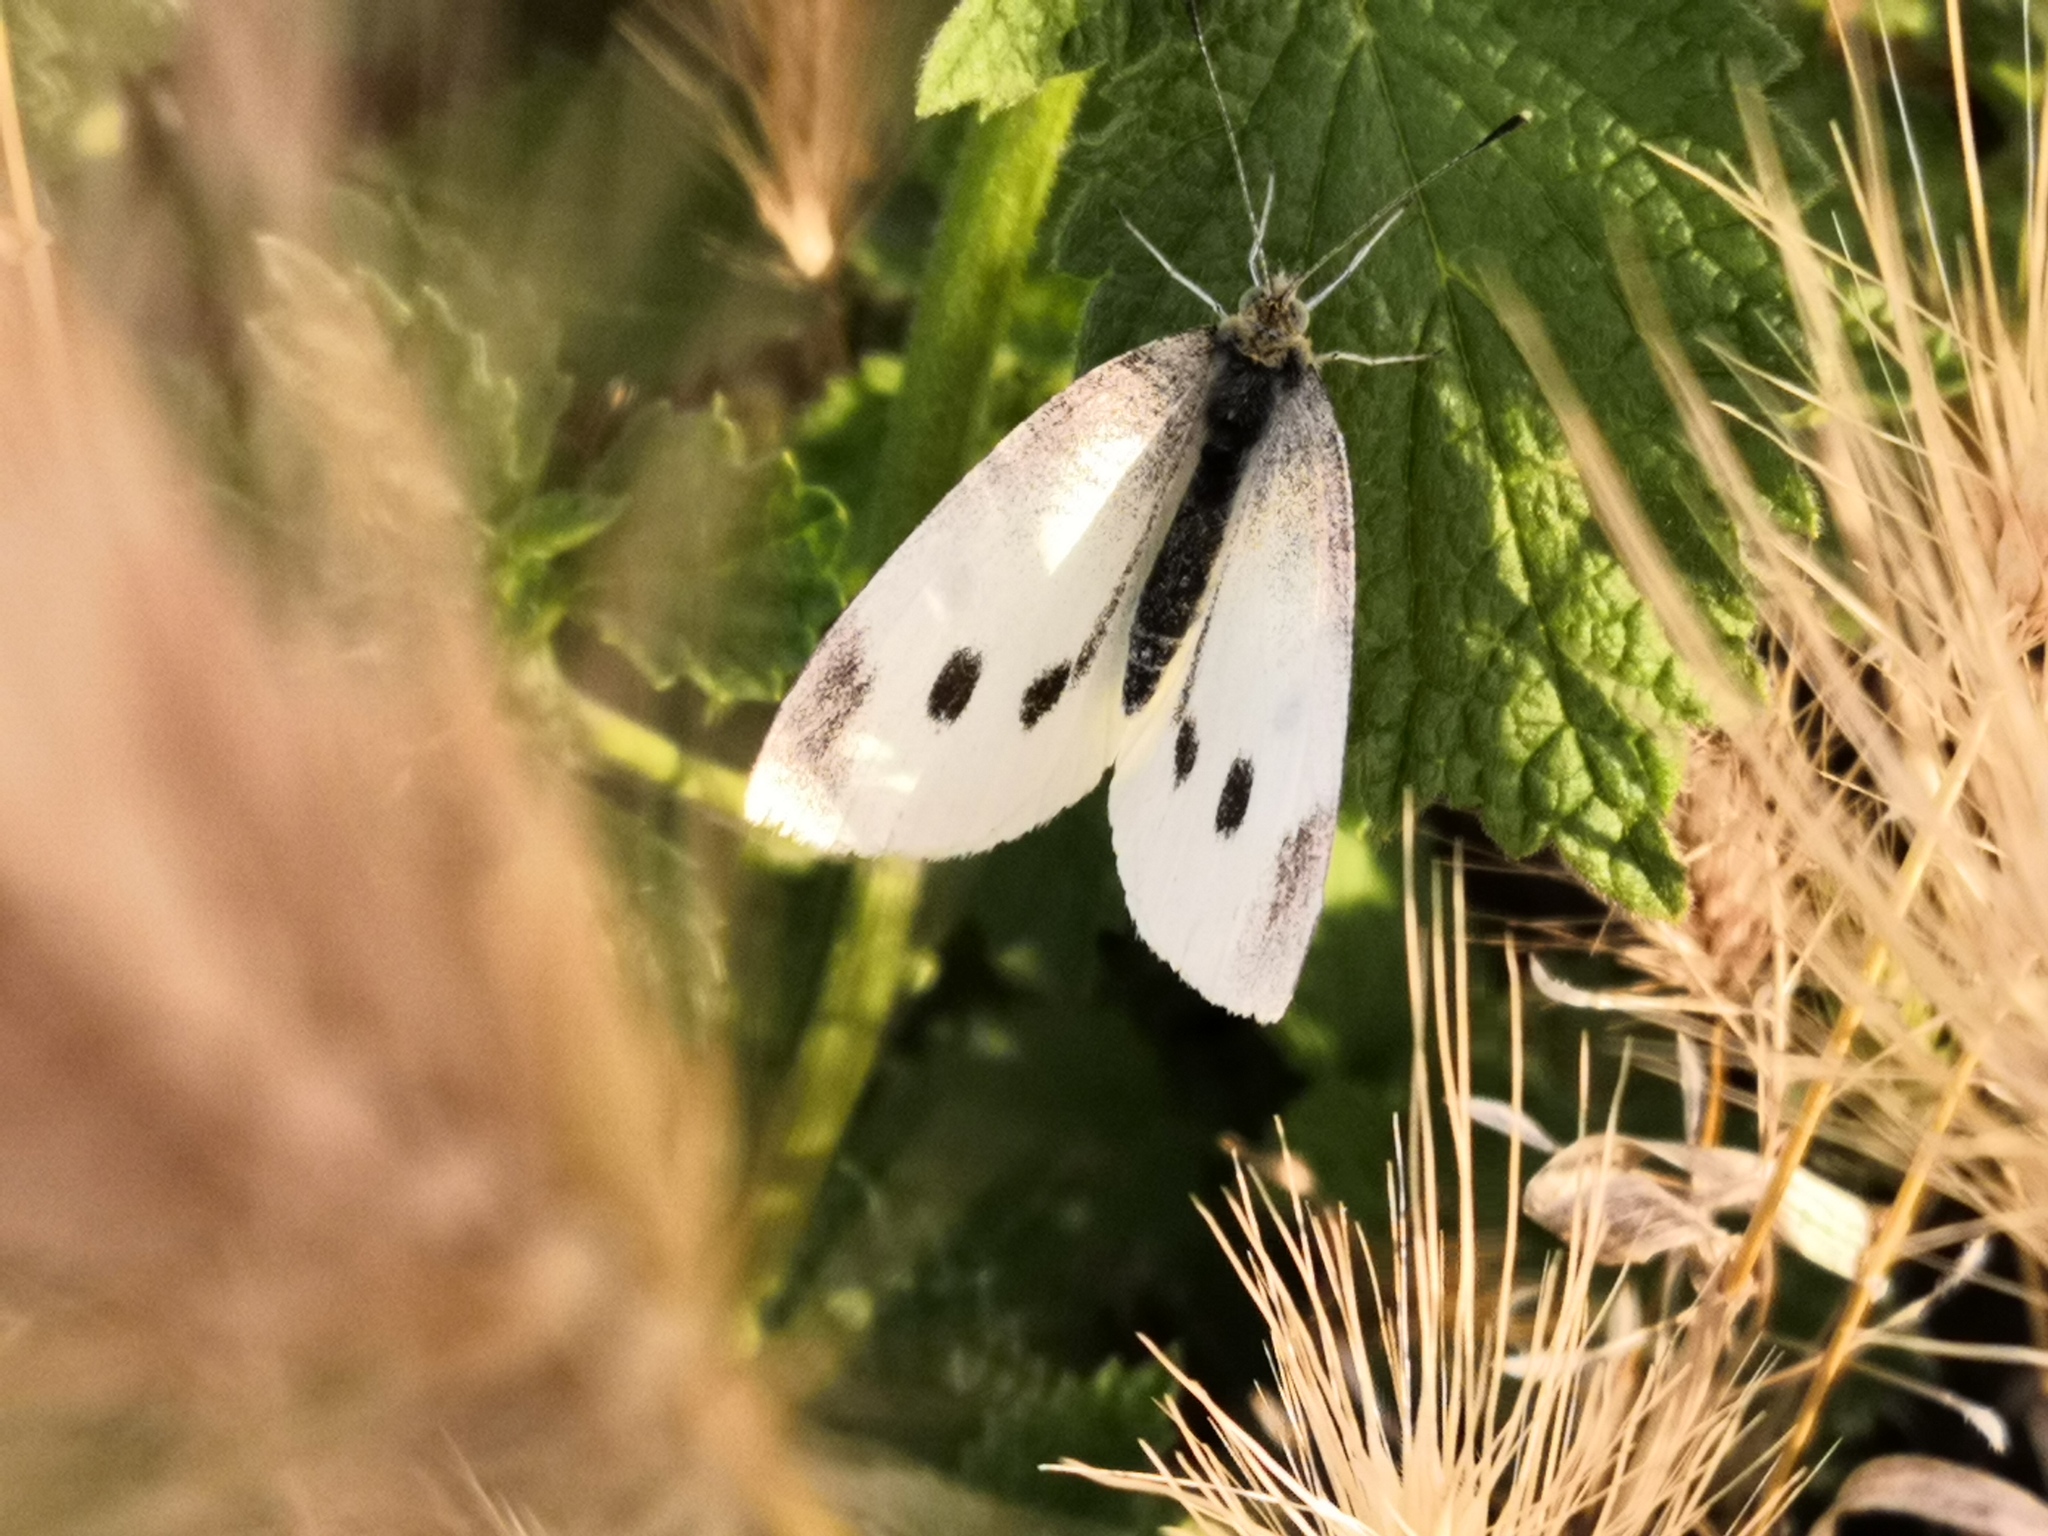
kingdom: Animalia
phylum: Arthropoda
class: Insecta
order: Lepidoptera
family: Pieridae
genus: Pieris
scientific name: Pieris rapae
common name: Small white
